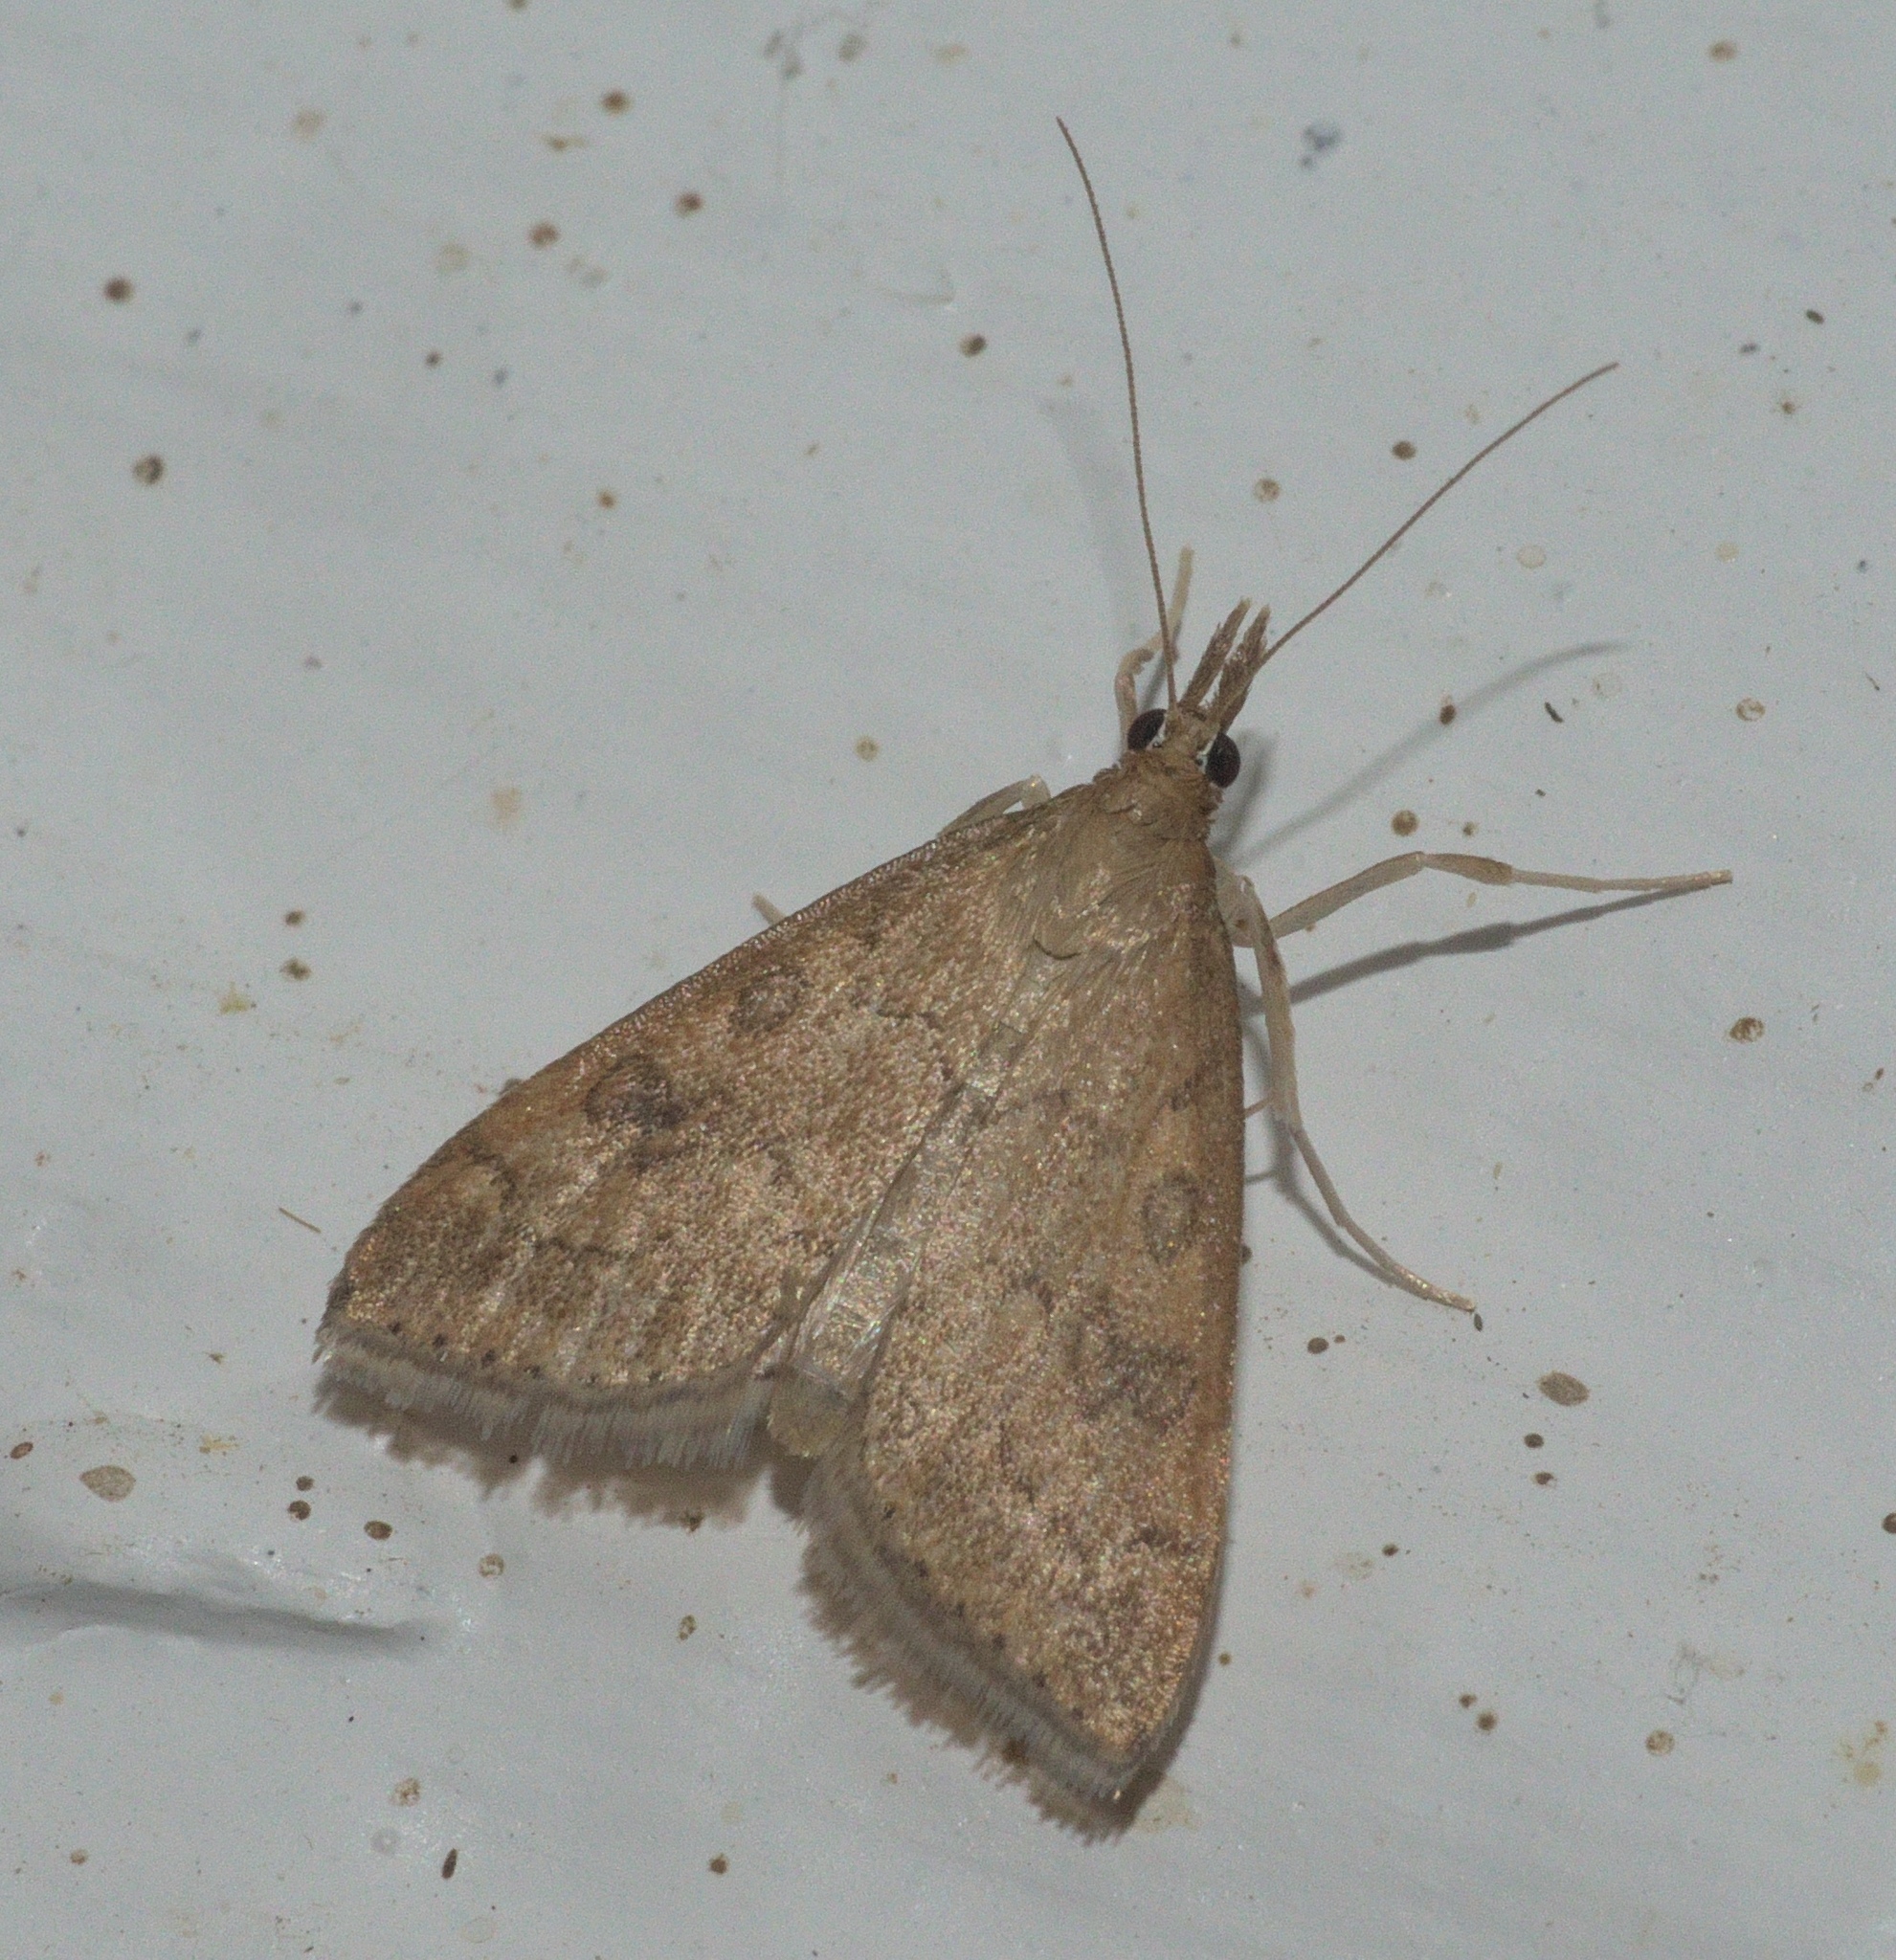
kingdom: Animalia
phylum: Arthropoda
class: Insecta
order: Lepidoptera
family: Crambidae
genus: Udea
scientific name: Udea rubigalis
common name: Celery leaftier moth
